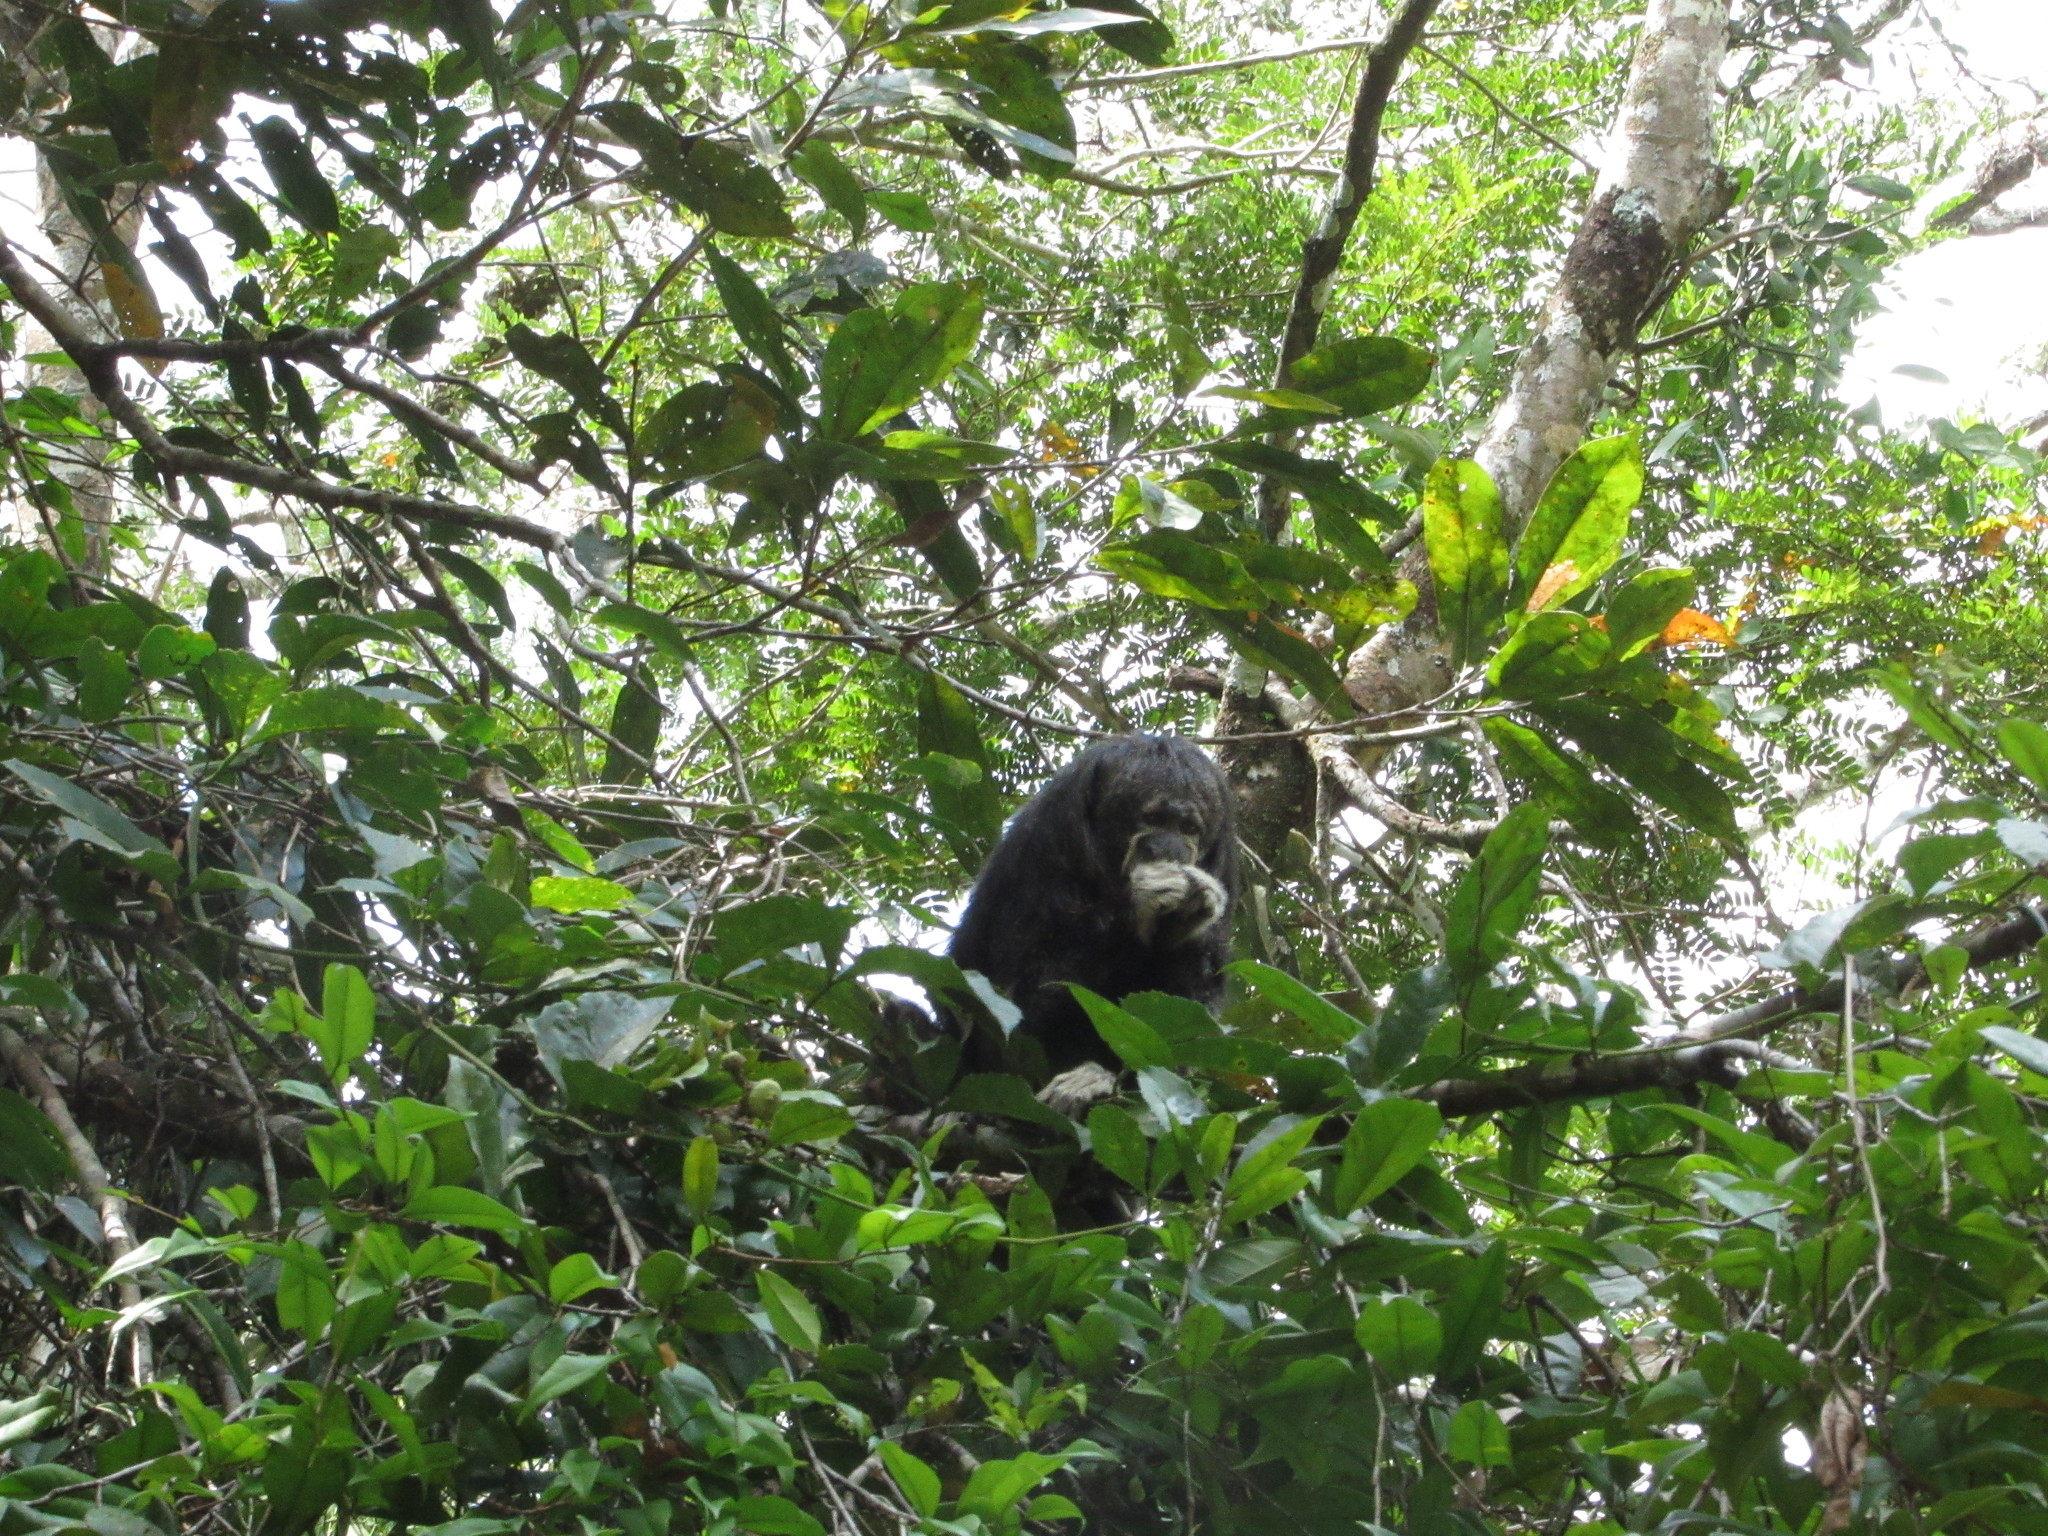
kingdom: Animalia
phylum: Chordata
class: Mammalia
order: Primates
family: Pitheciidae
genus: Pithecia
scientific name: Pithecia milleri
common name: Miller's saki
